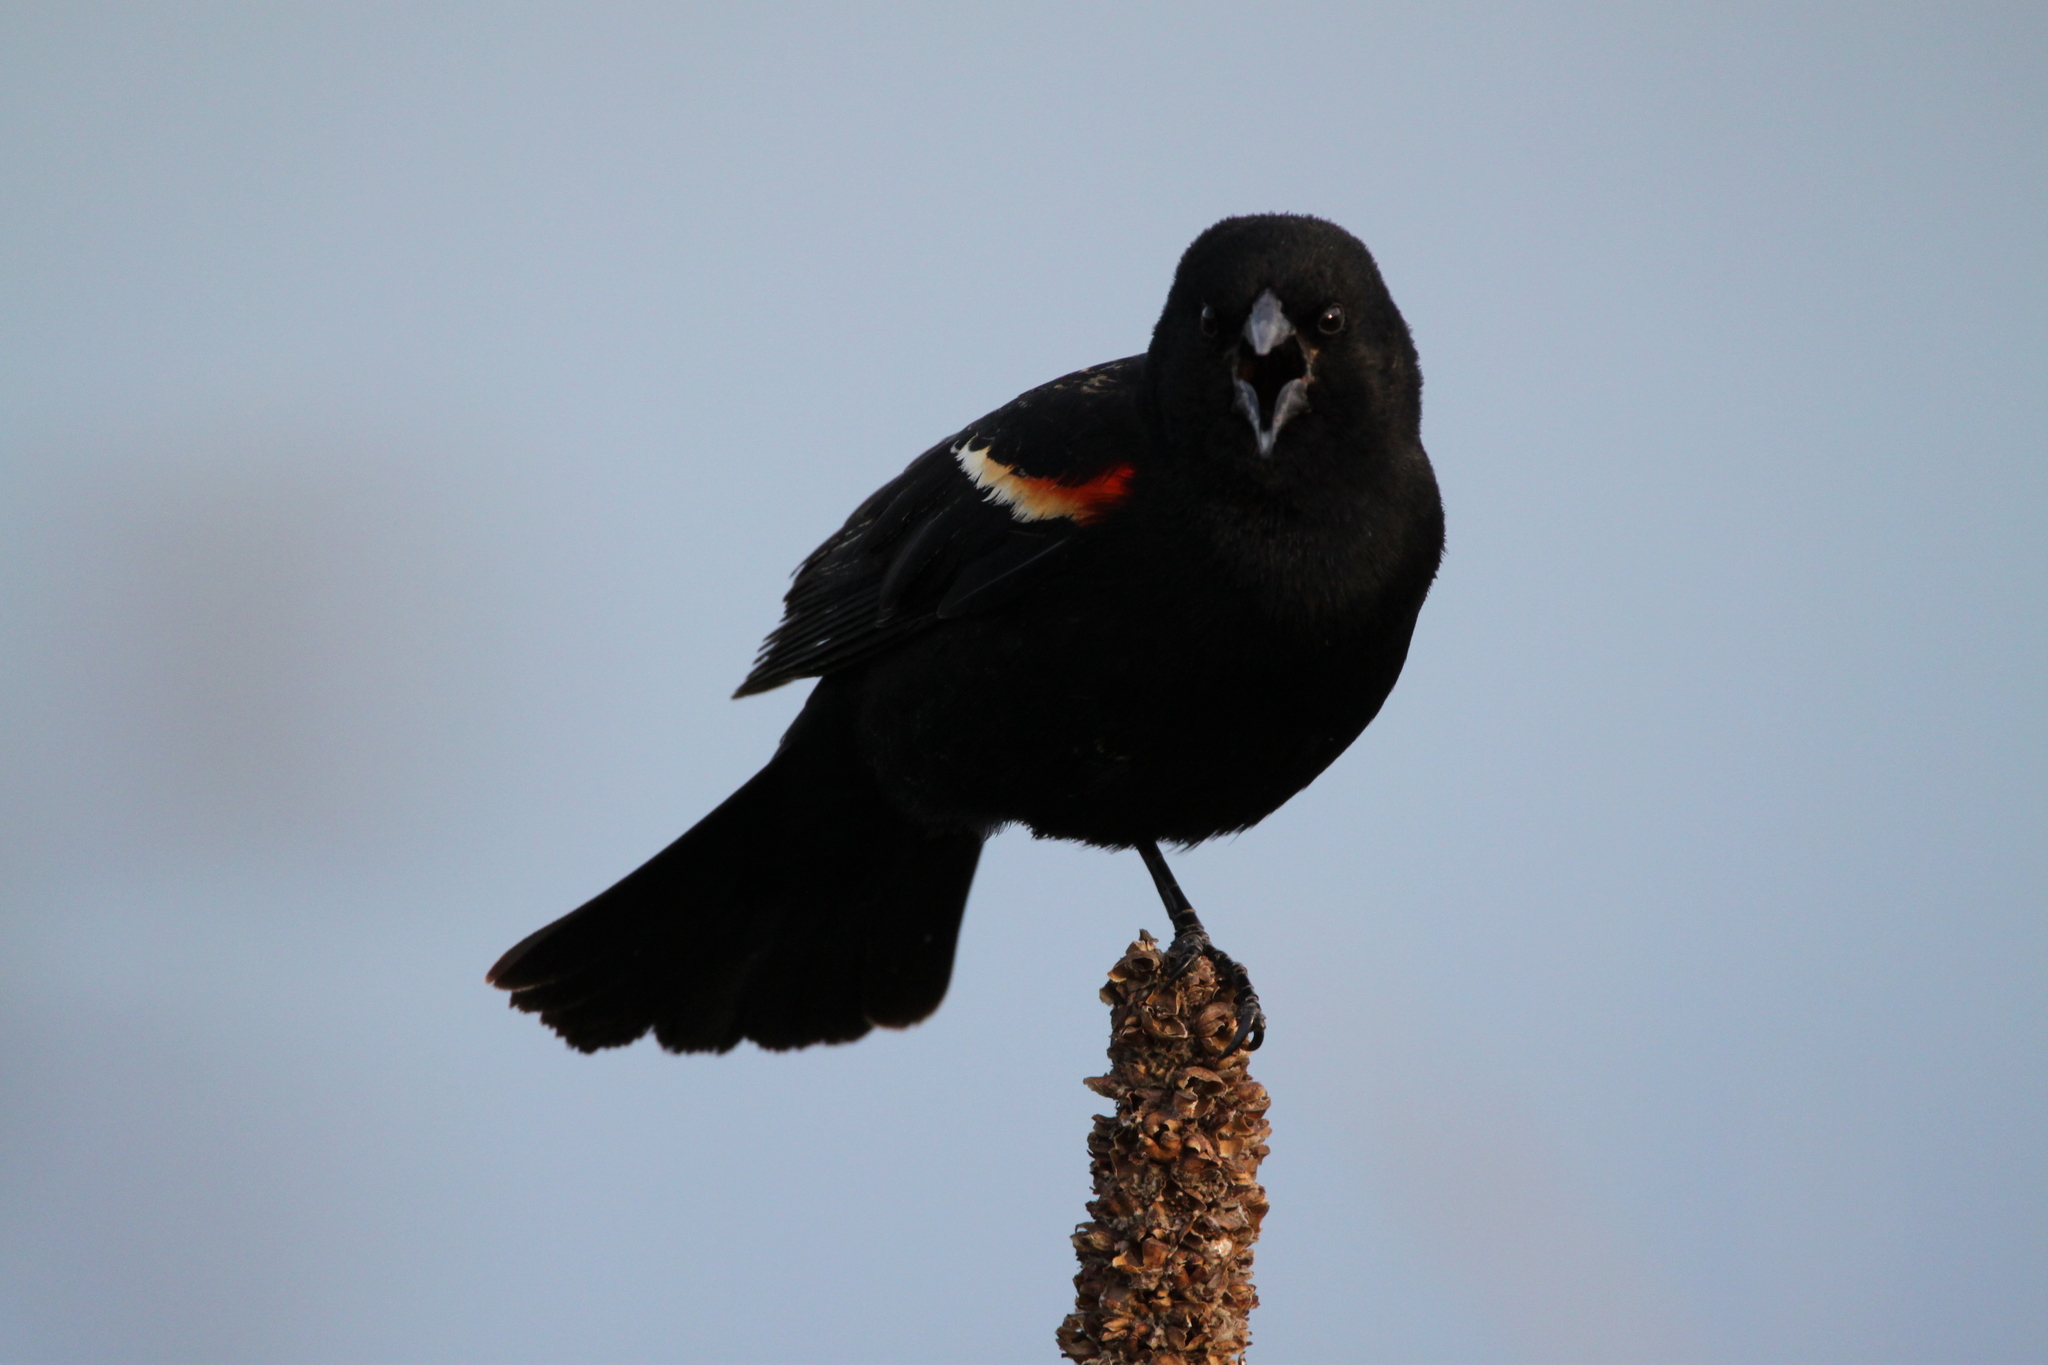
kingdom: Animalia
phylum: Chordata
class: Aves
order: Passeriformes
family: Icteridae
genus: Agelaius
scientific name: Agelaius phoeniceus
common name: Red-winged blackbird
